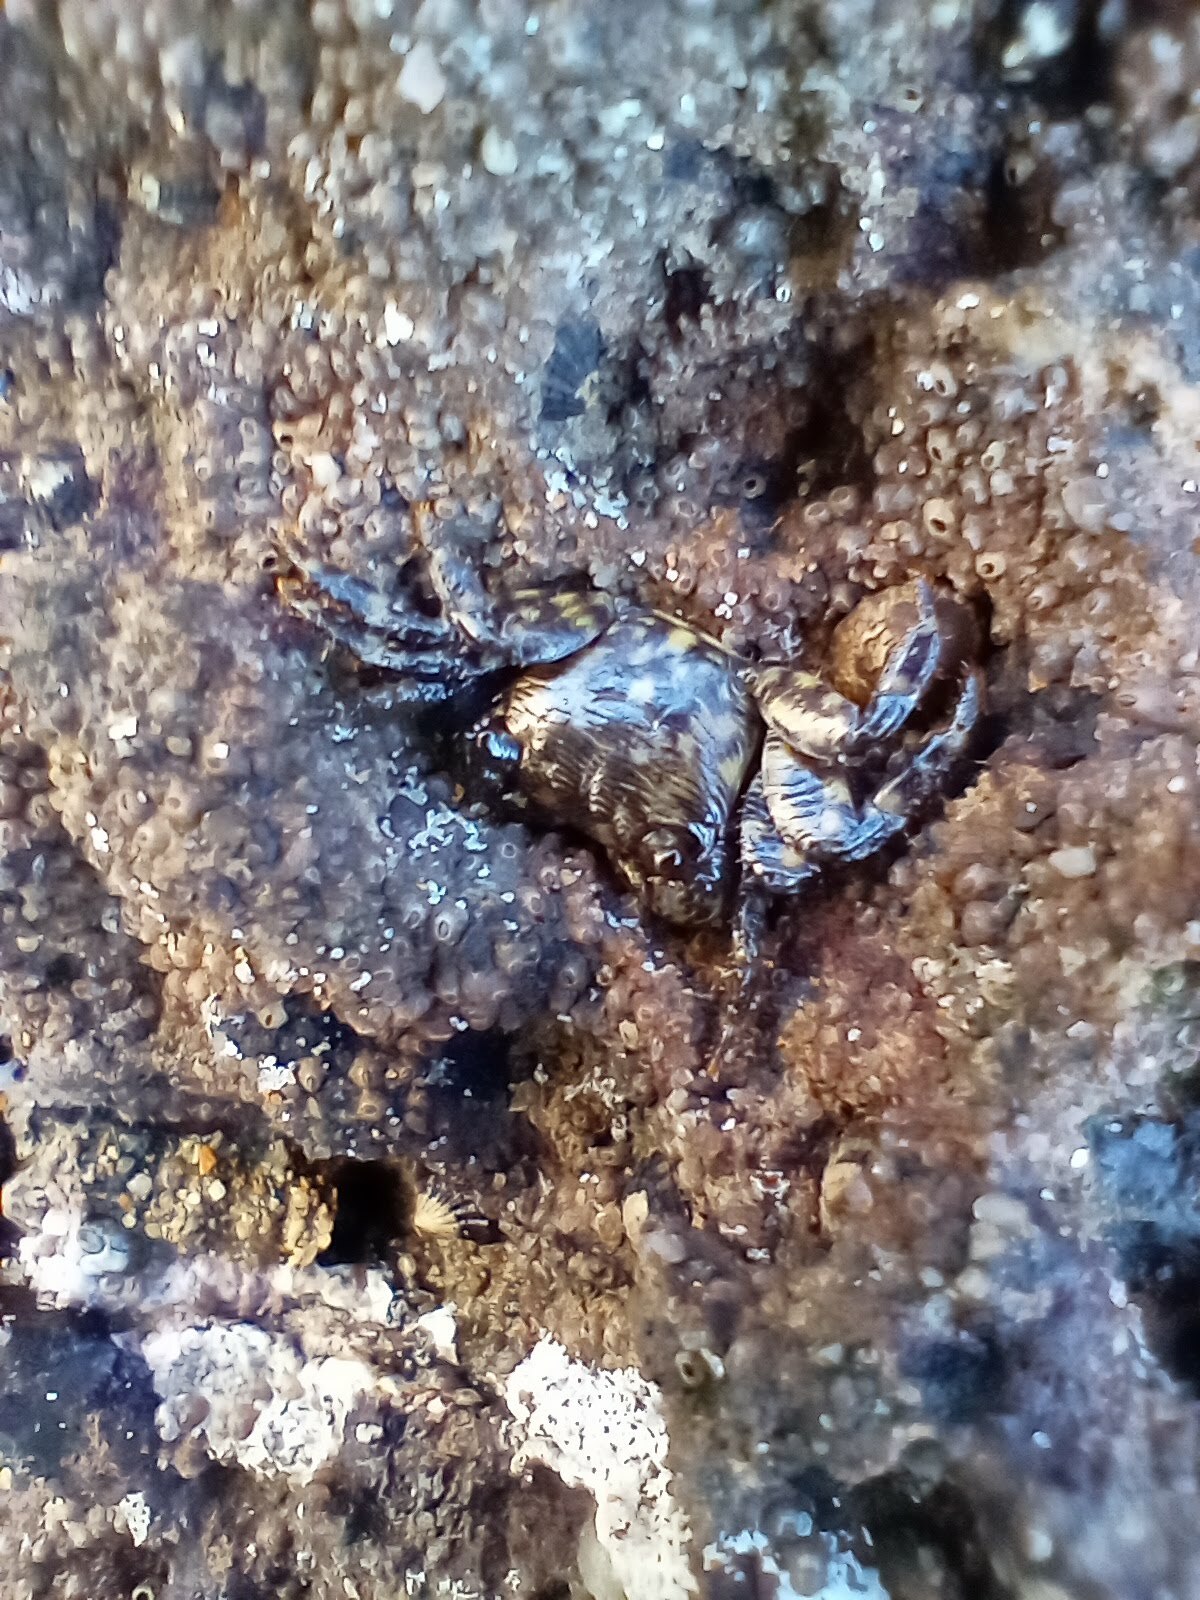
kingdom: Animalia
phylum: Arthropoda
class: Malacostraca
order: Decapoda
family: Grapsidae
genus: Pachygrapsus
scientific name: Pachygrapsus crassipes
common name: Striped shore crab
